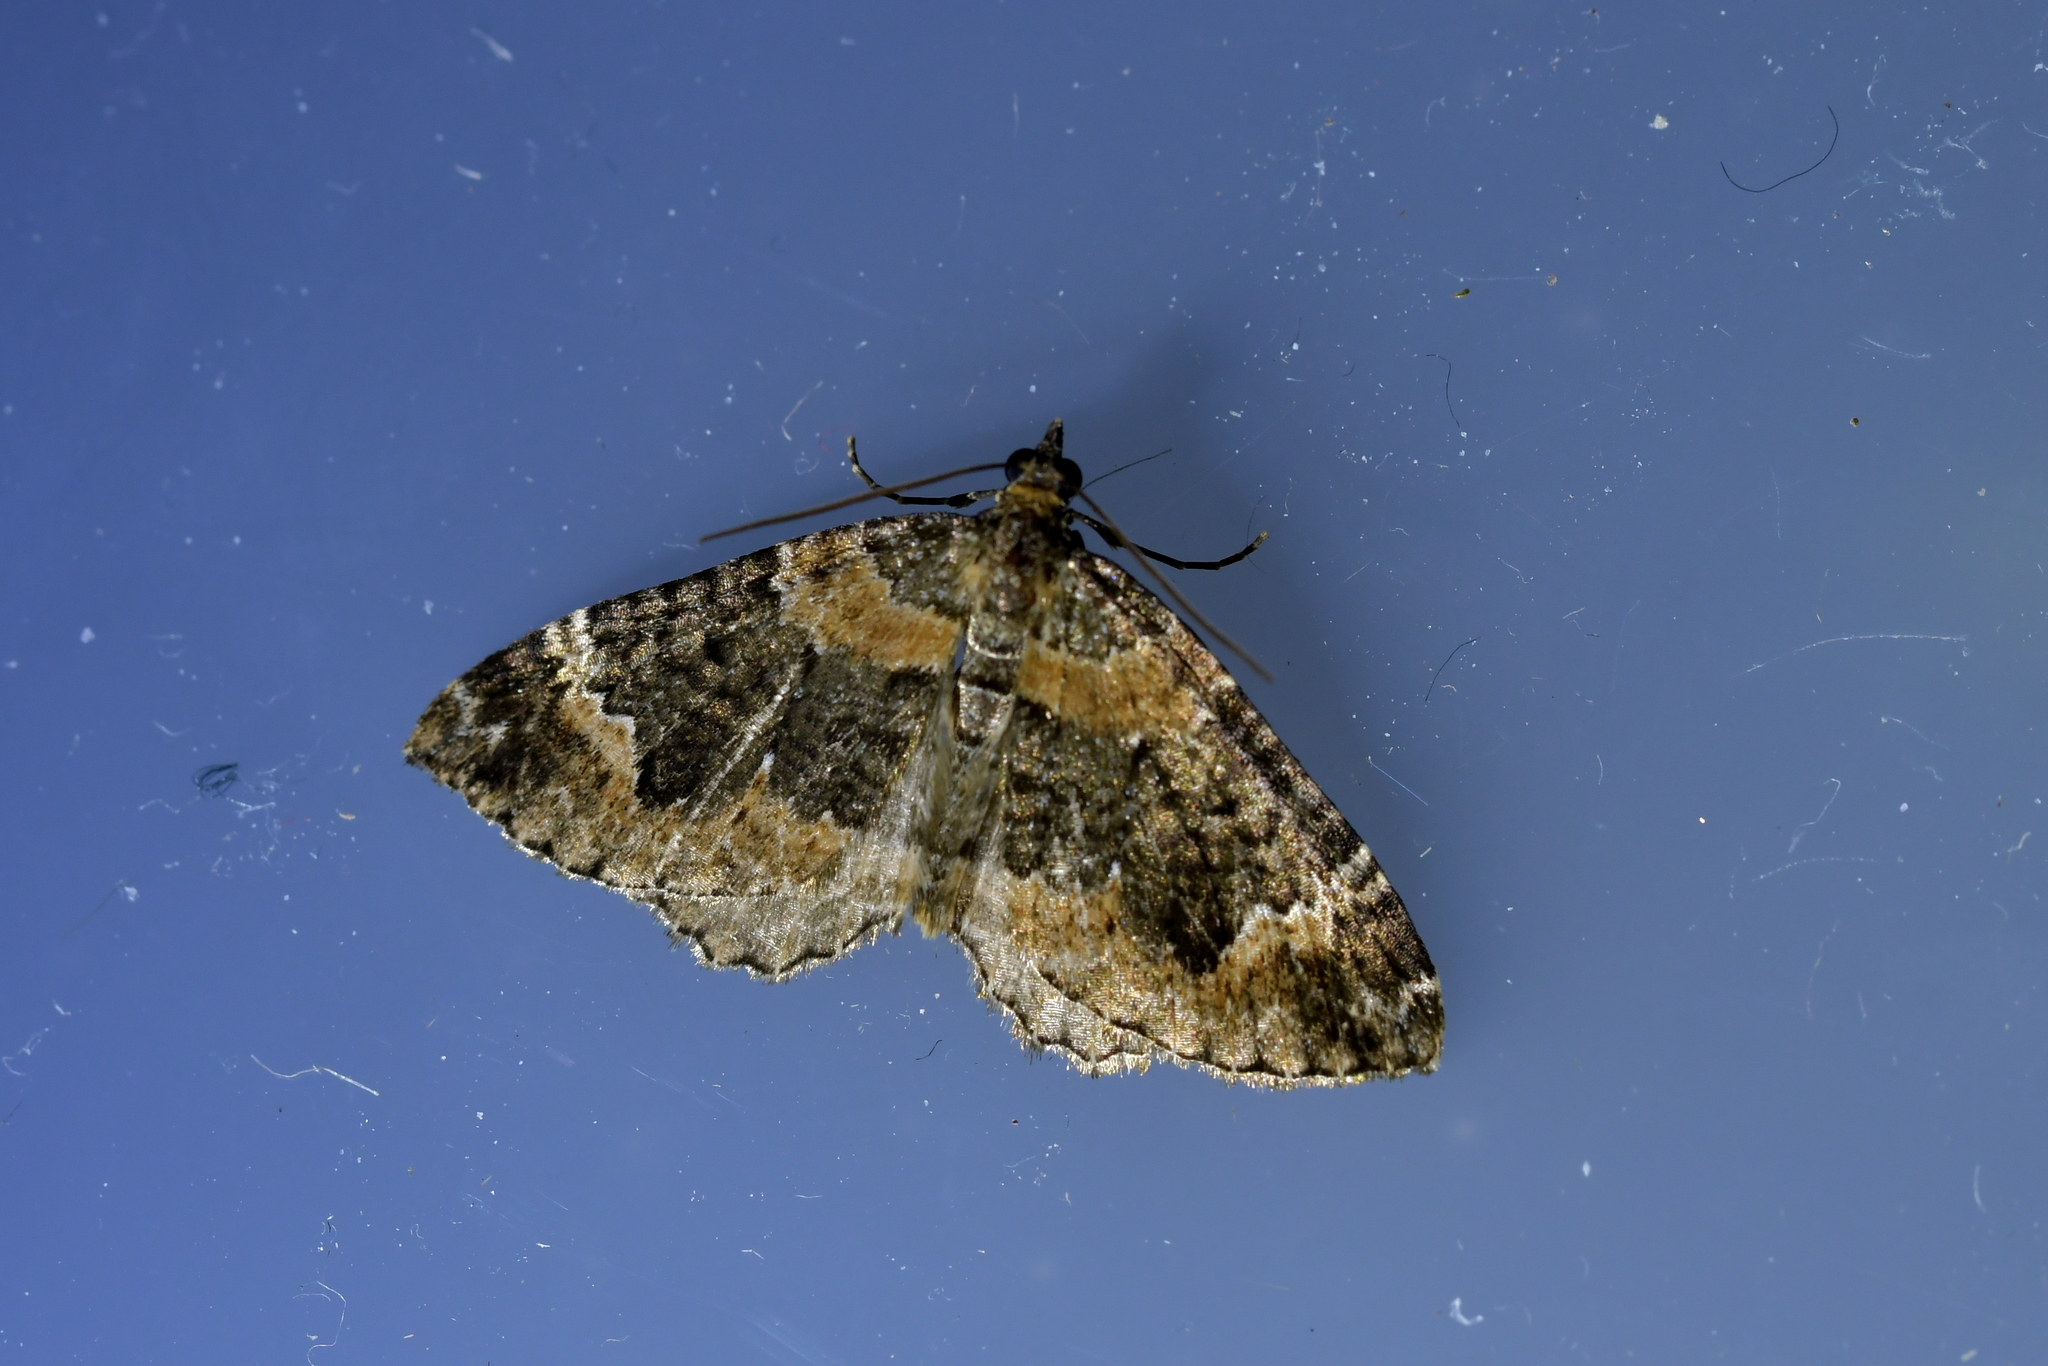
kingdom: Animalia
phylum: Arthropoda
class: Insecta
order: Lepidoptera
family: Geometridae
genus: Hydriomena
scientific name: Hydriomena hemizona
